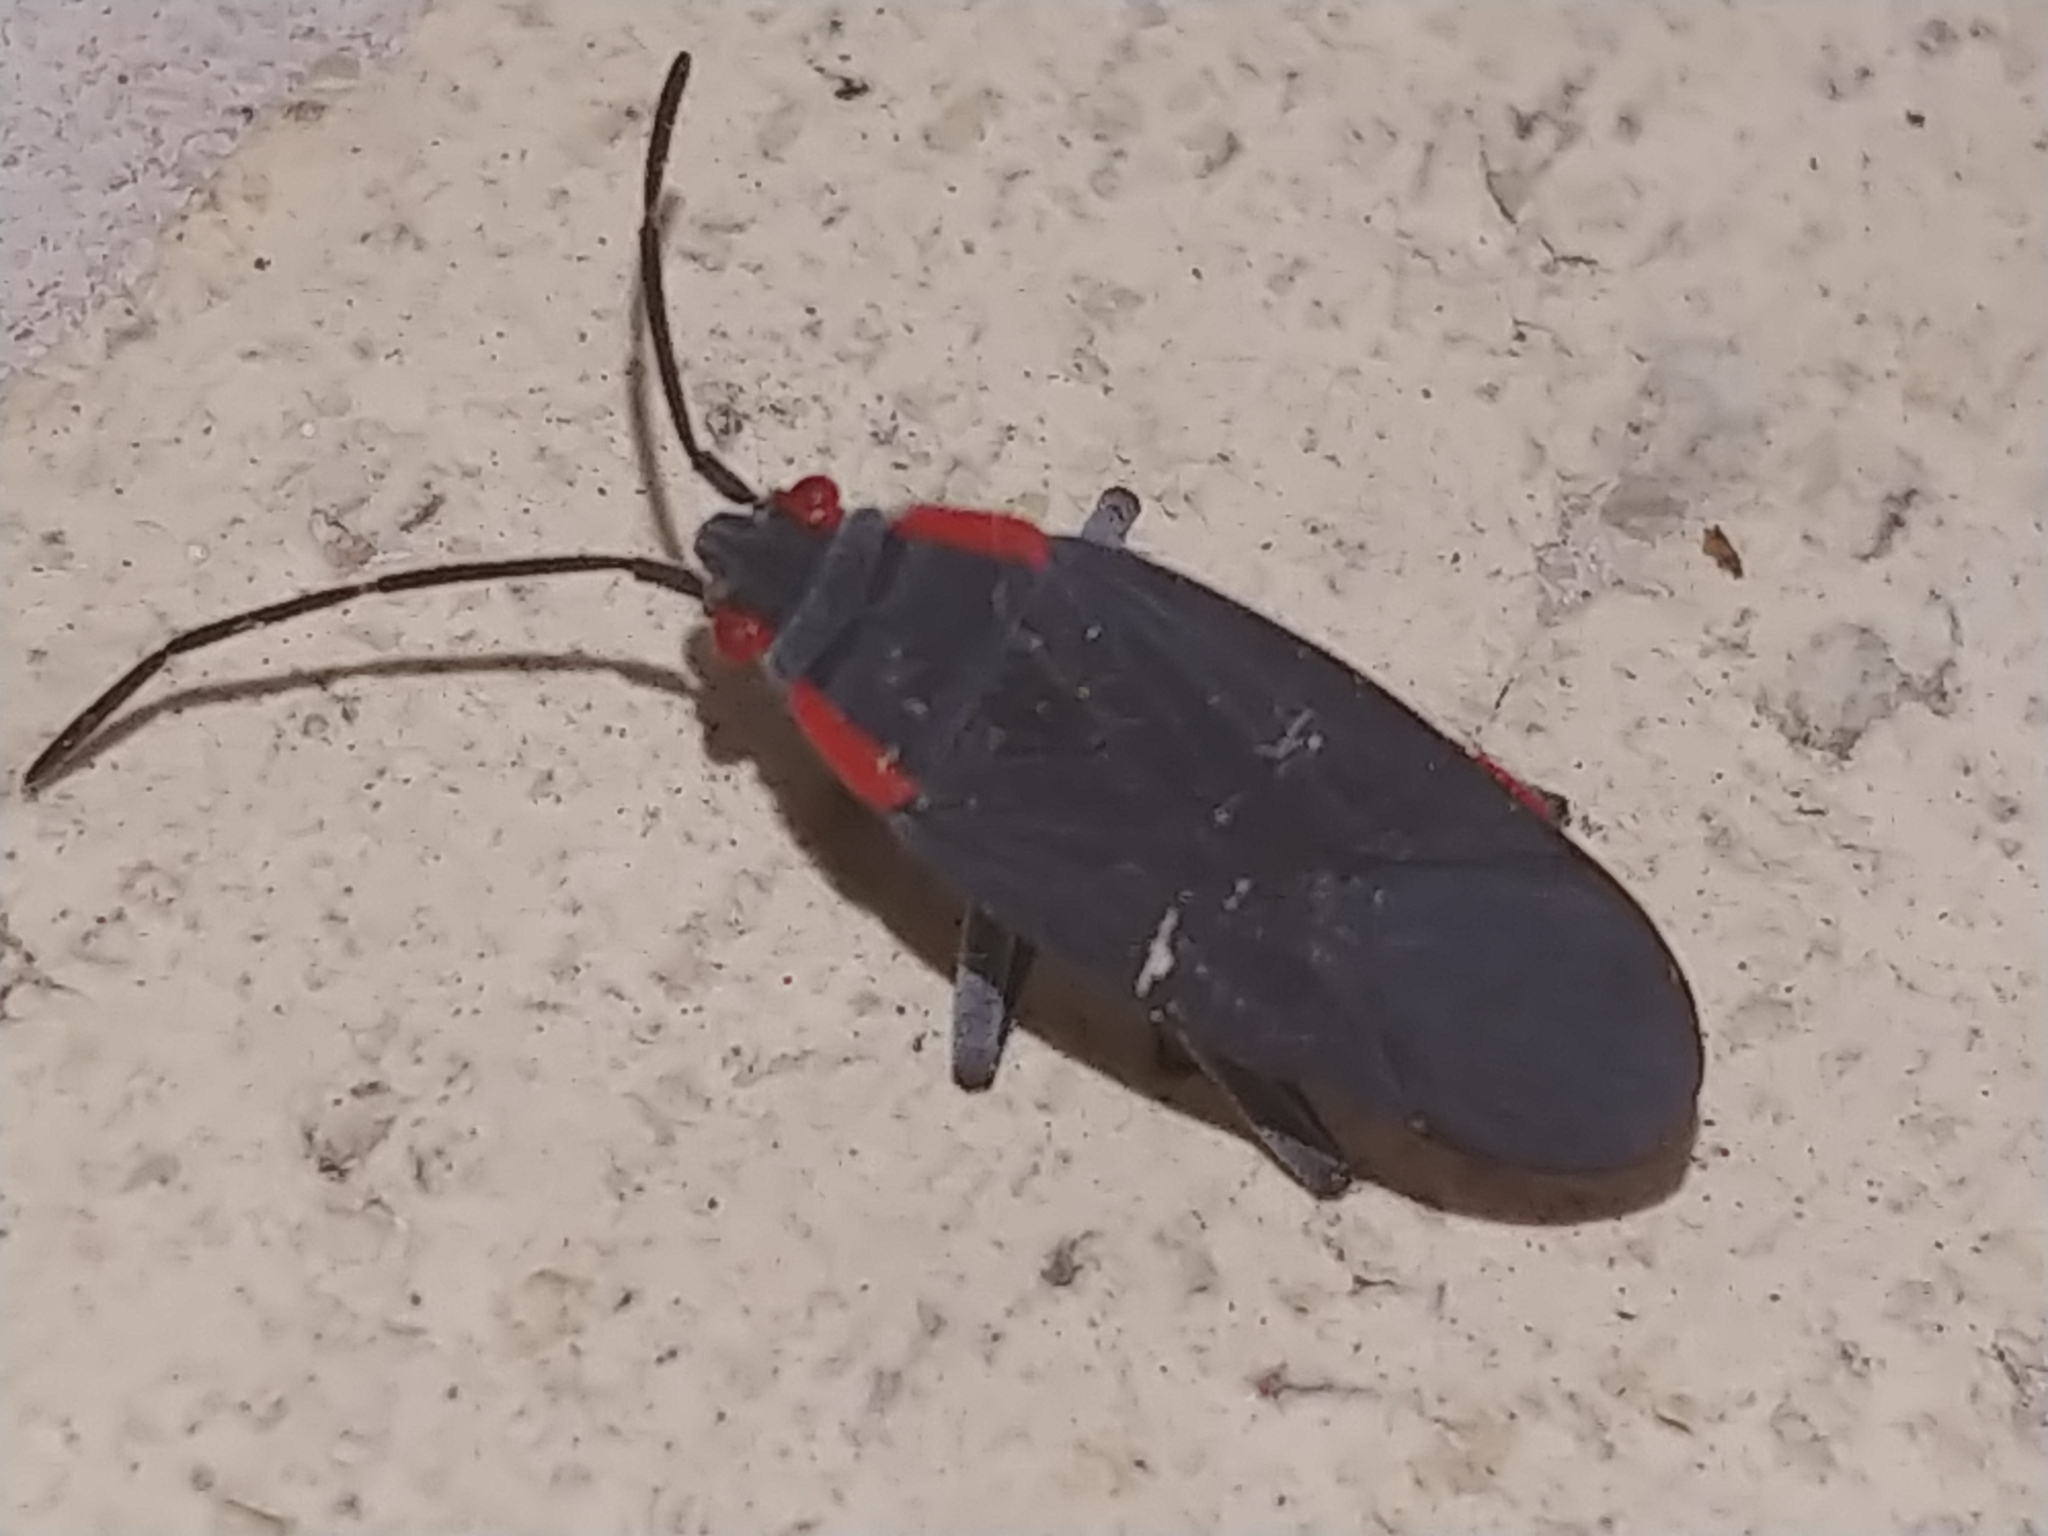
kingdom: Animalia
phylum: Arthropoda
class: Insecta
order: Hemiptera
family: Rhopalidae
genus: Jadera
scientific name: Jadera haematoloma
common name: Red-shouldered bug
